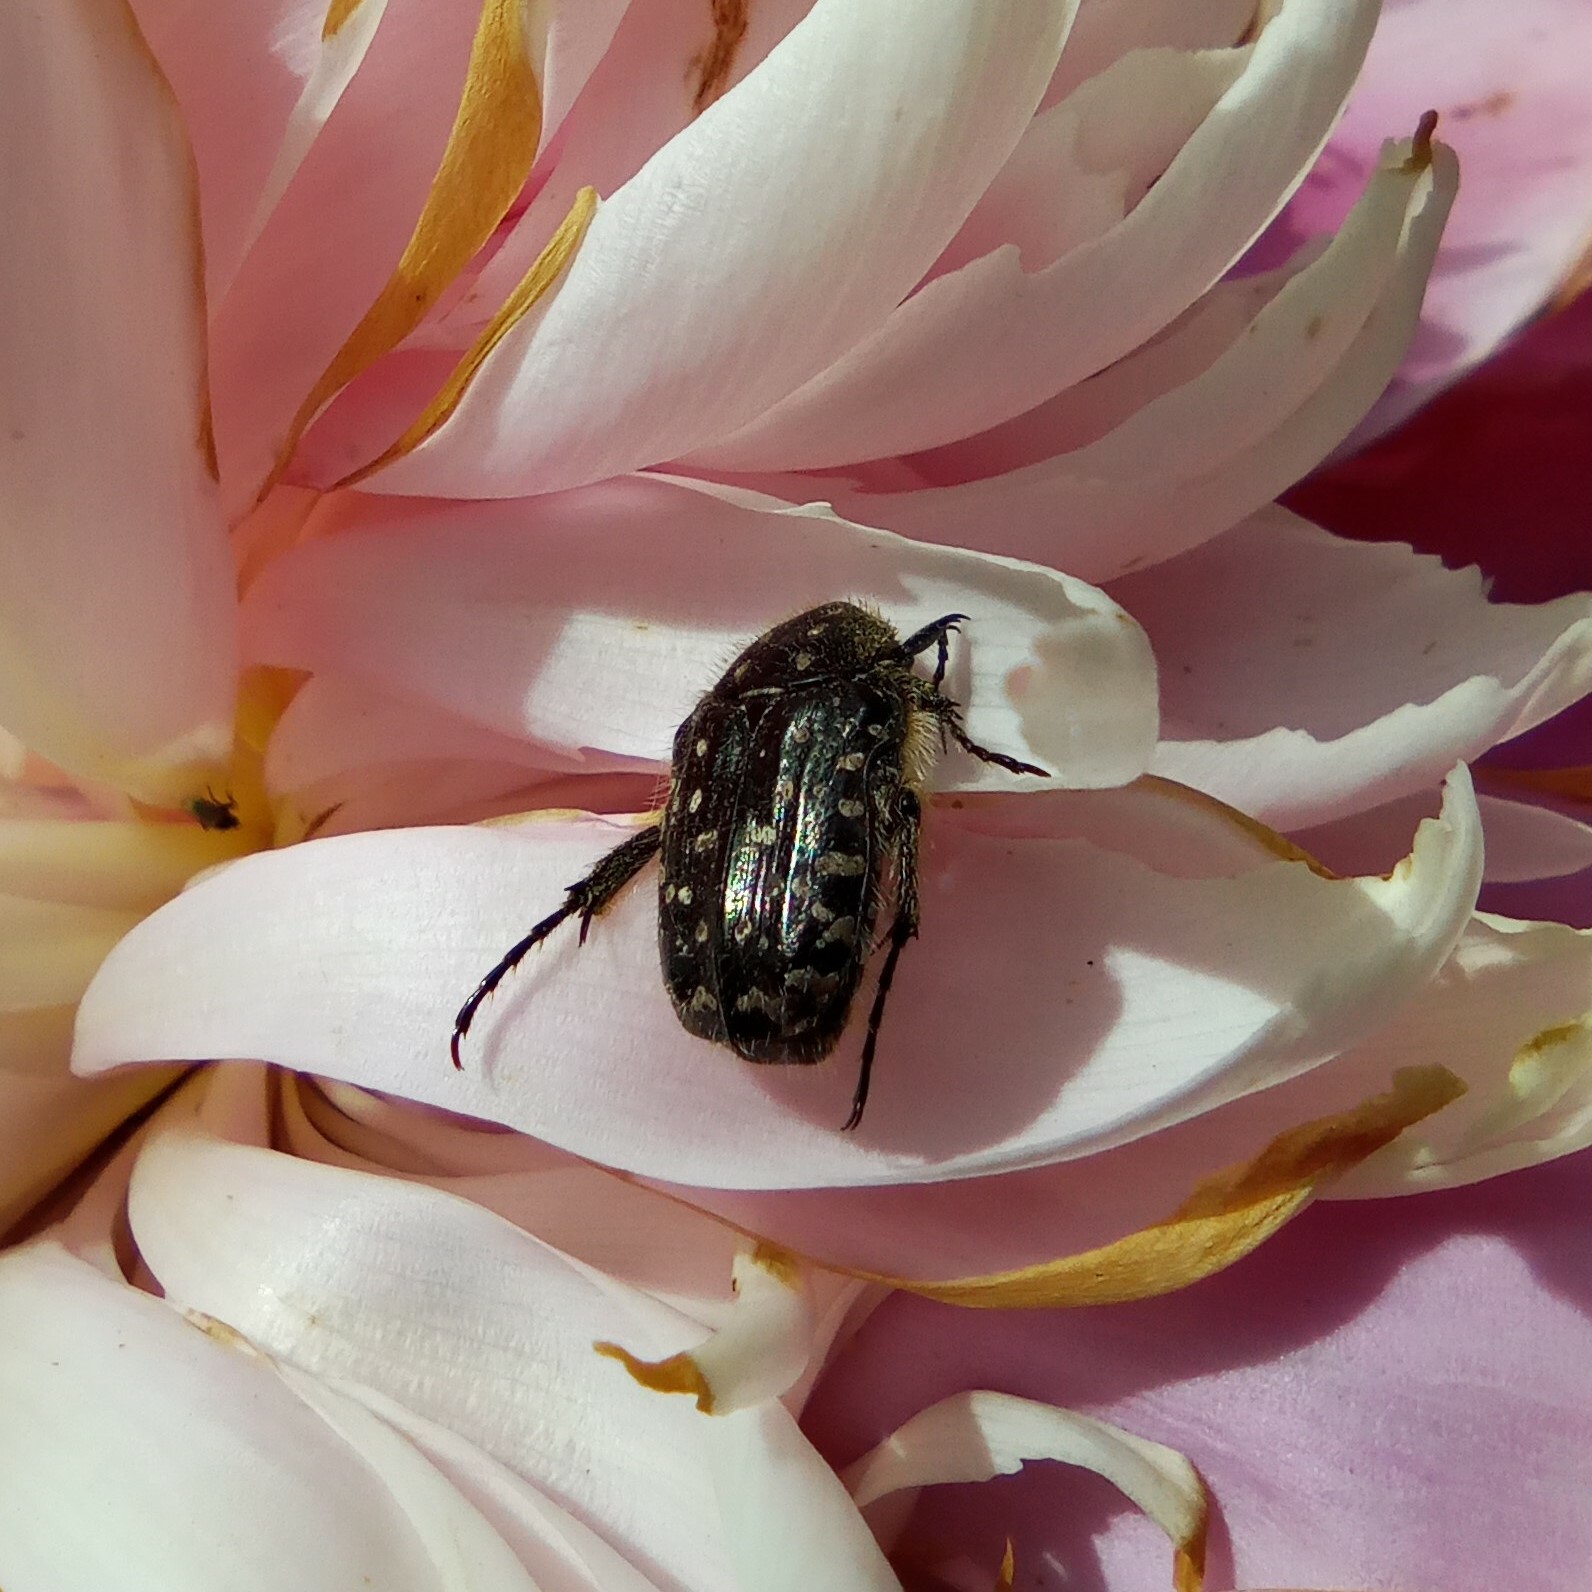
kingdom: Animalia
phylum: Arthropoda
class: Insecta
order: Coleoptera
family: Scarabaeidae
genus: Oxythyrea
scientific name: Oxythyrea funesta
